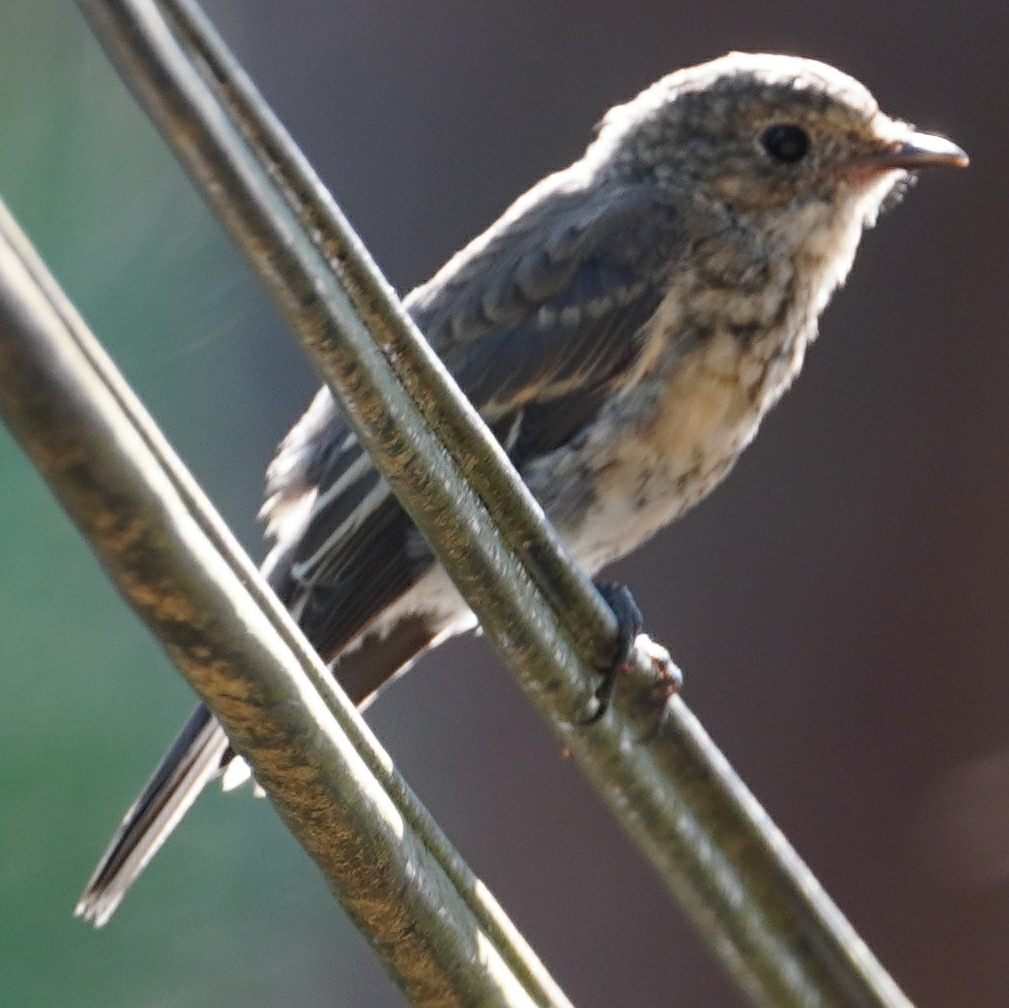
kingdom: Animalia
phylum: Chordata
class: Aves
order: Passeriformes
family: Muscicapidae
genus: Ficedula
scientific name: Ficedula hypoleuca
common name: European pied flycatcher
